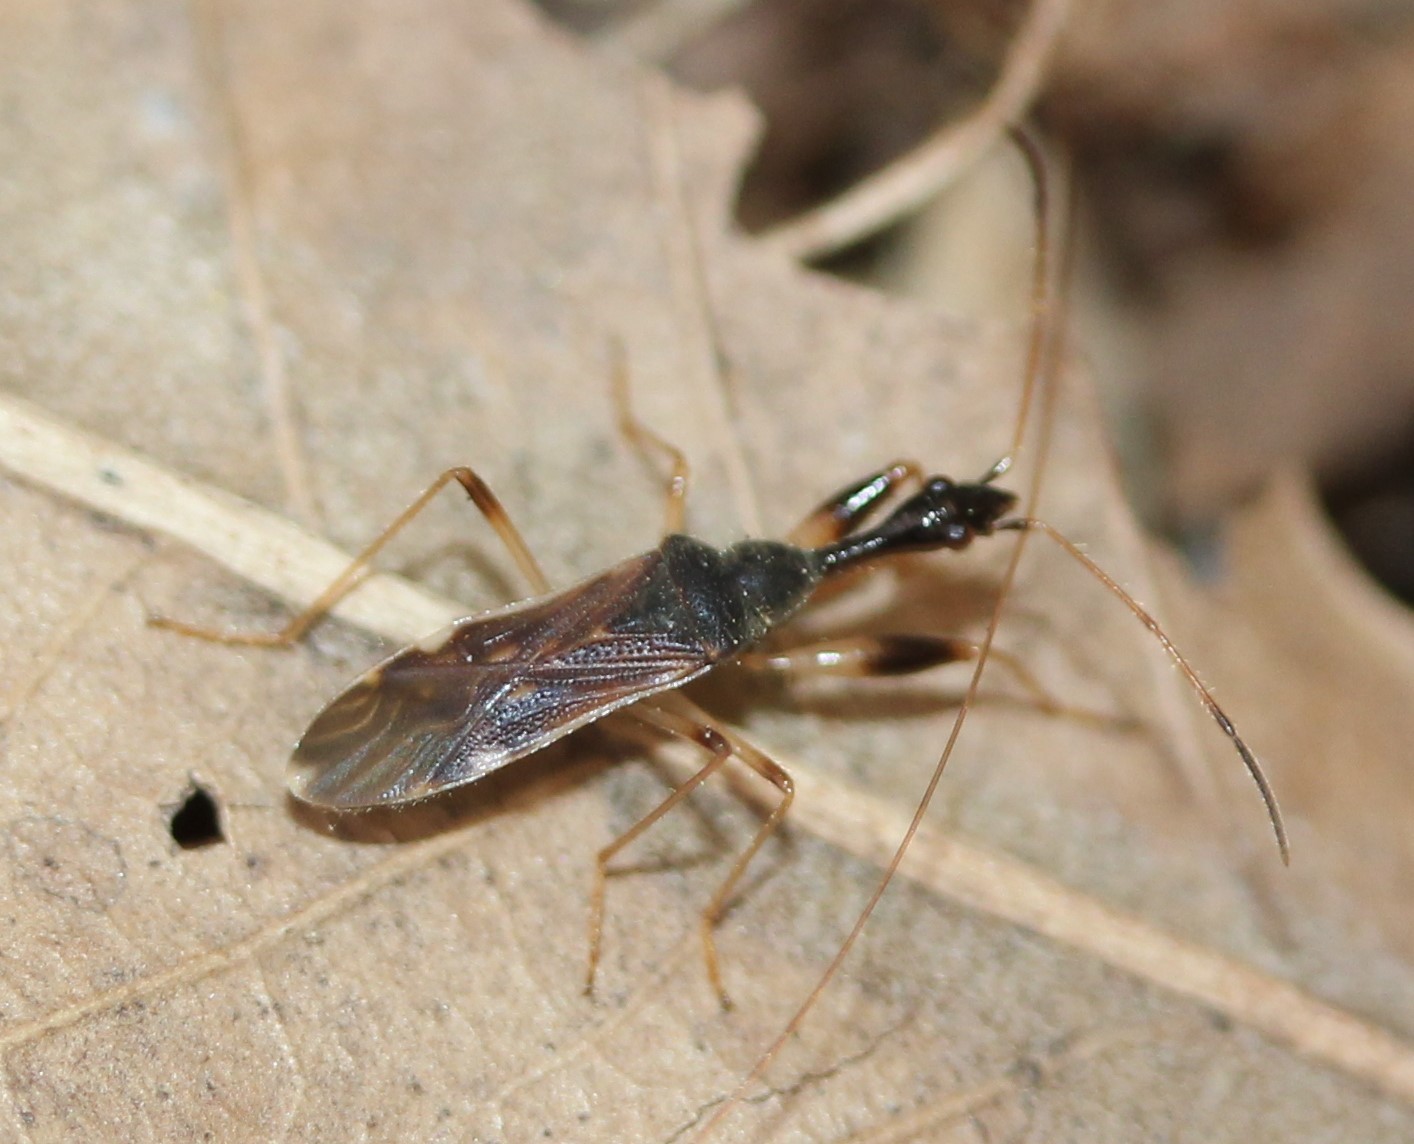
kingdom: Animalia
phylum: Arthropoda
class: Insecta
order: Hemiptera
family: Rhyparochromidae
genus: Myodocha
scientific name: Myodocha serripes
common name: Long-necked seed bug
